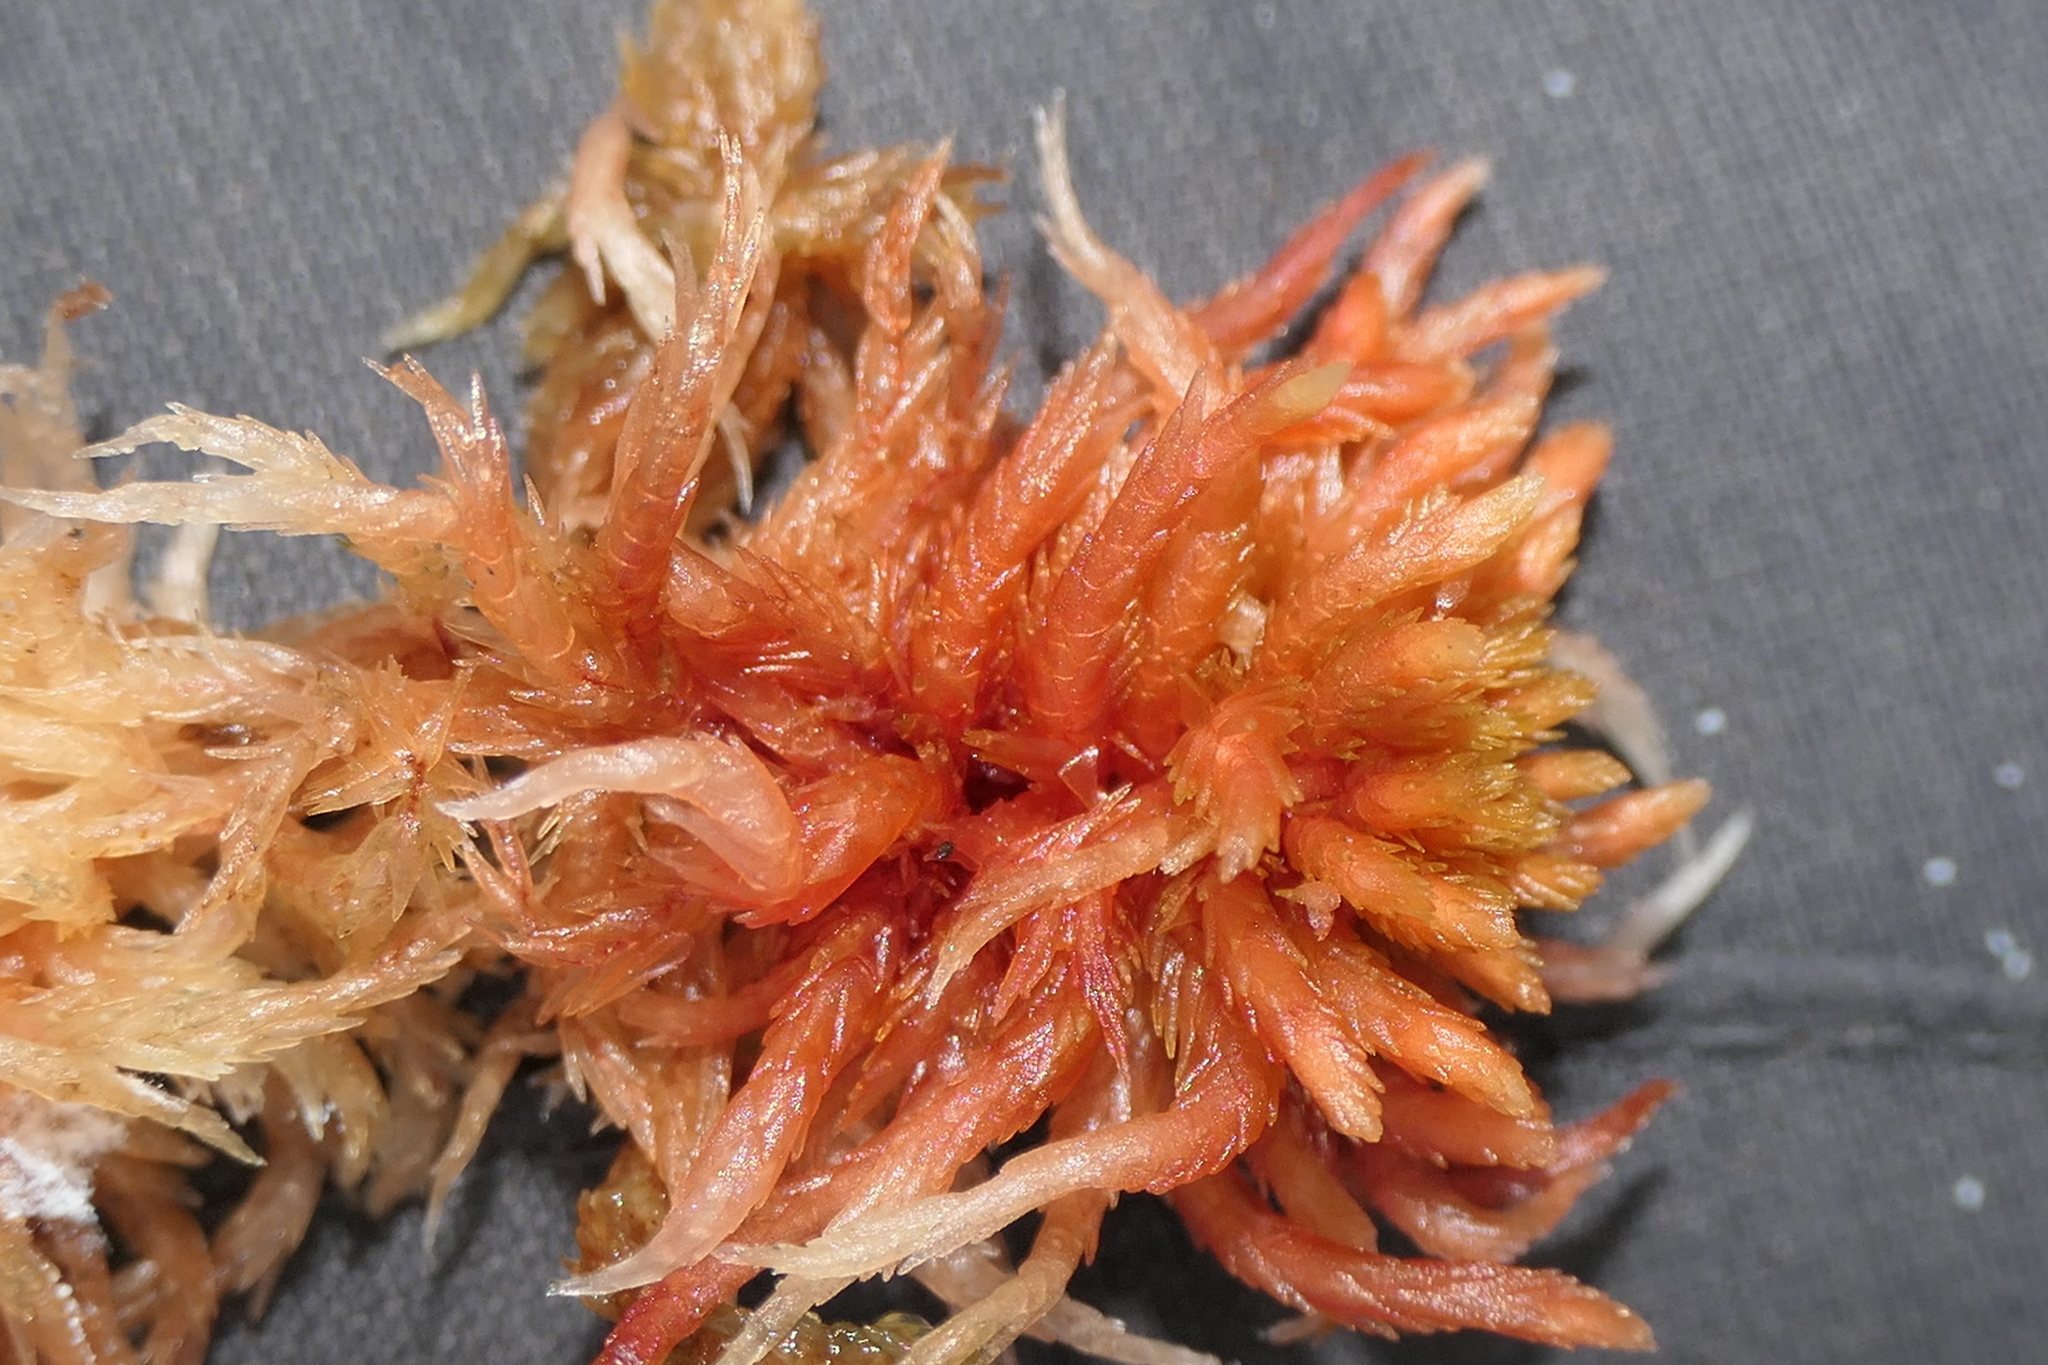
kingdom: Plantae
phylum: Bryophyta
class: Sphagnopsida
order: Sphagnales
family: Sphagnaceae
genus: Sphagnum
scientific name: Sphagnum subnitens
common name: Lustrous bog-moss
